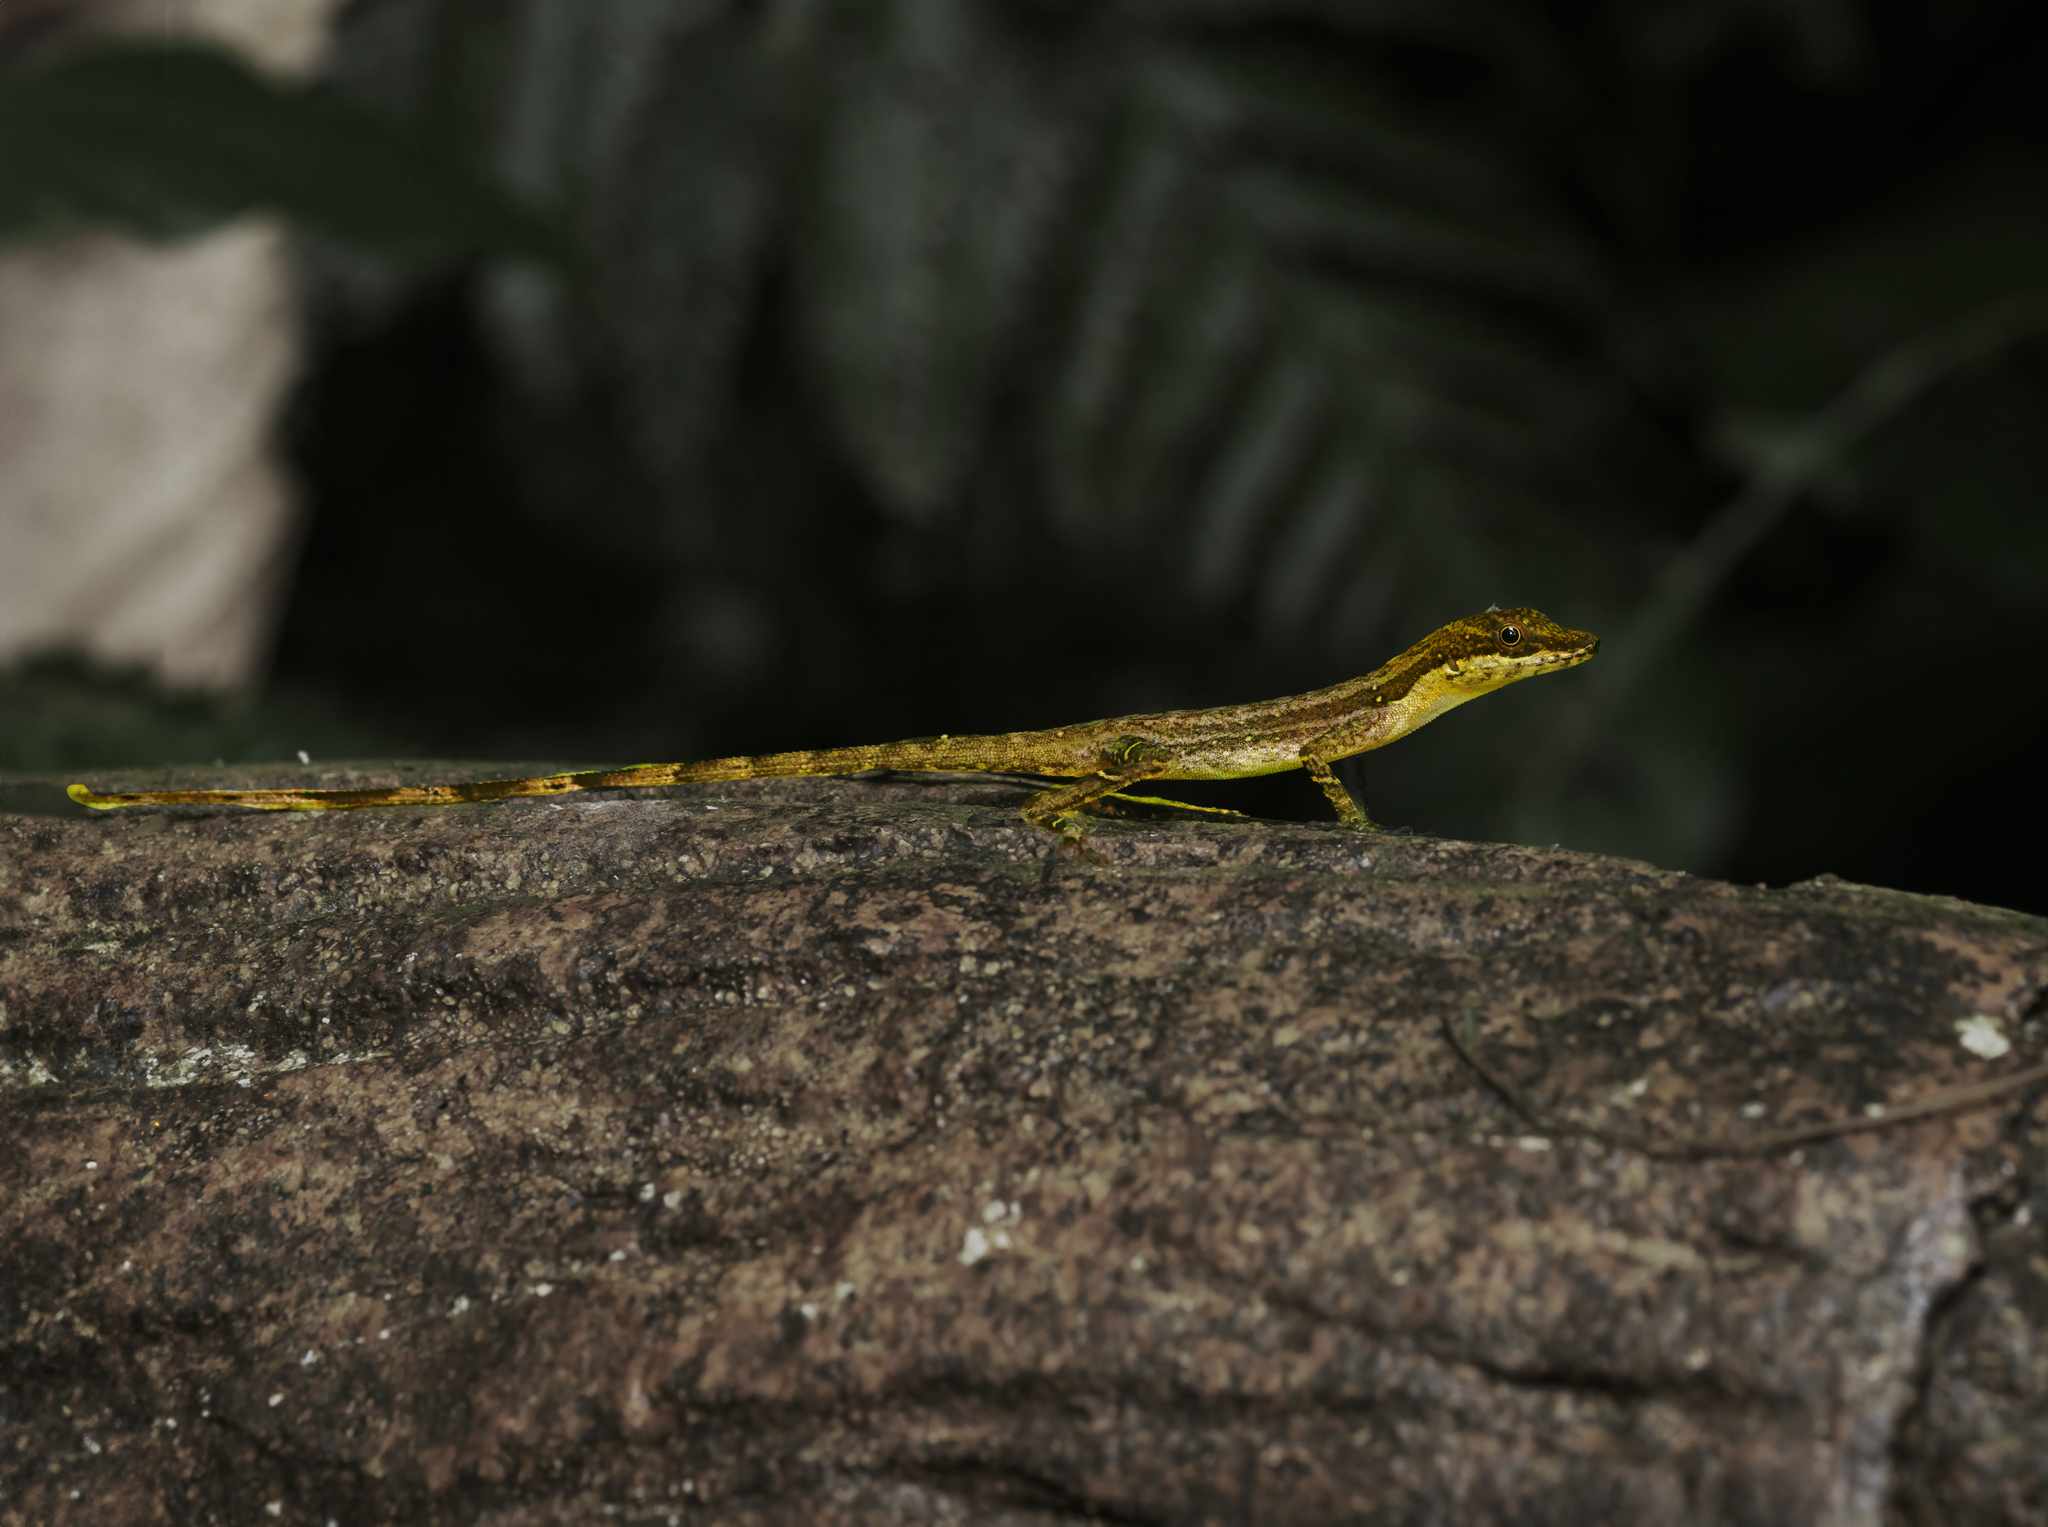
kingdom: Animalia
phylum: Chordata
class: Squamata
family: Dactyloidae
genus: Anolis
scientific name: Anolis limifrons
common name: Border anole
